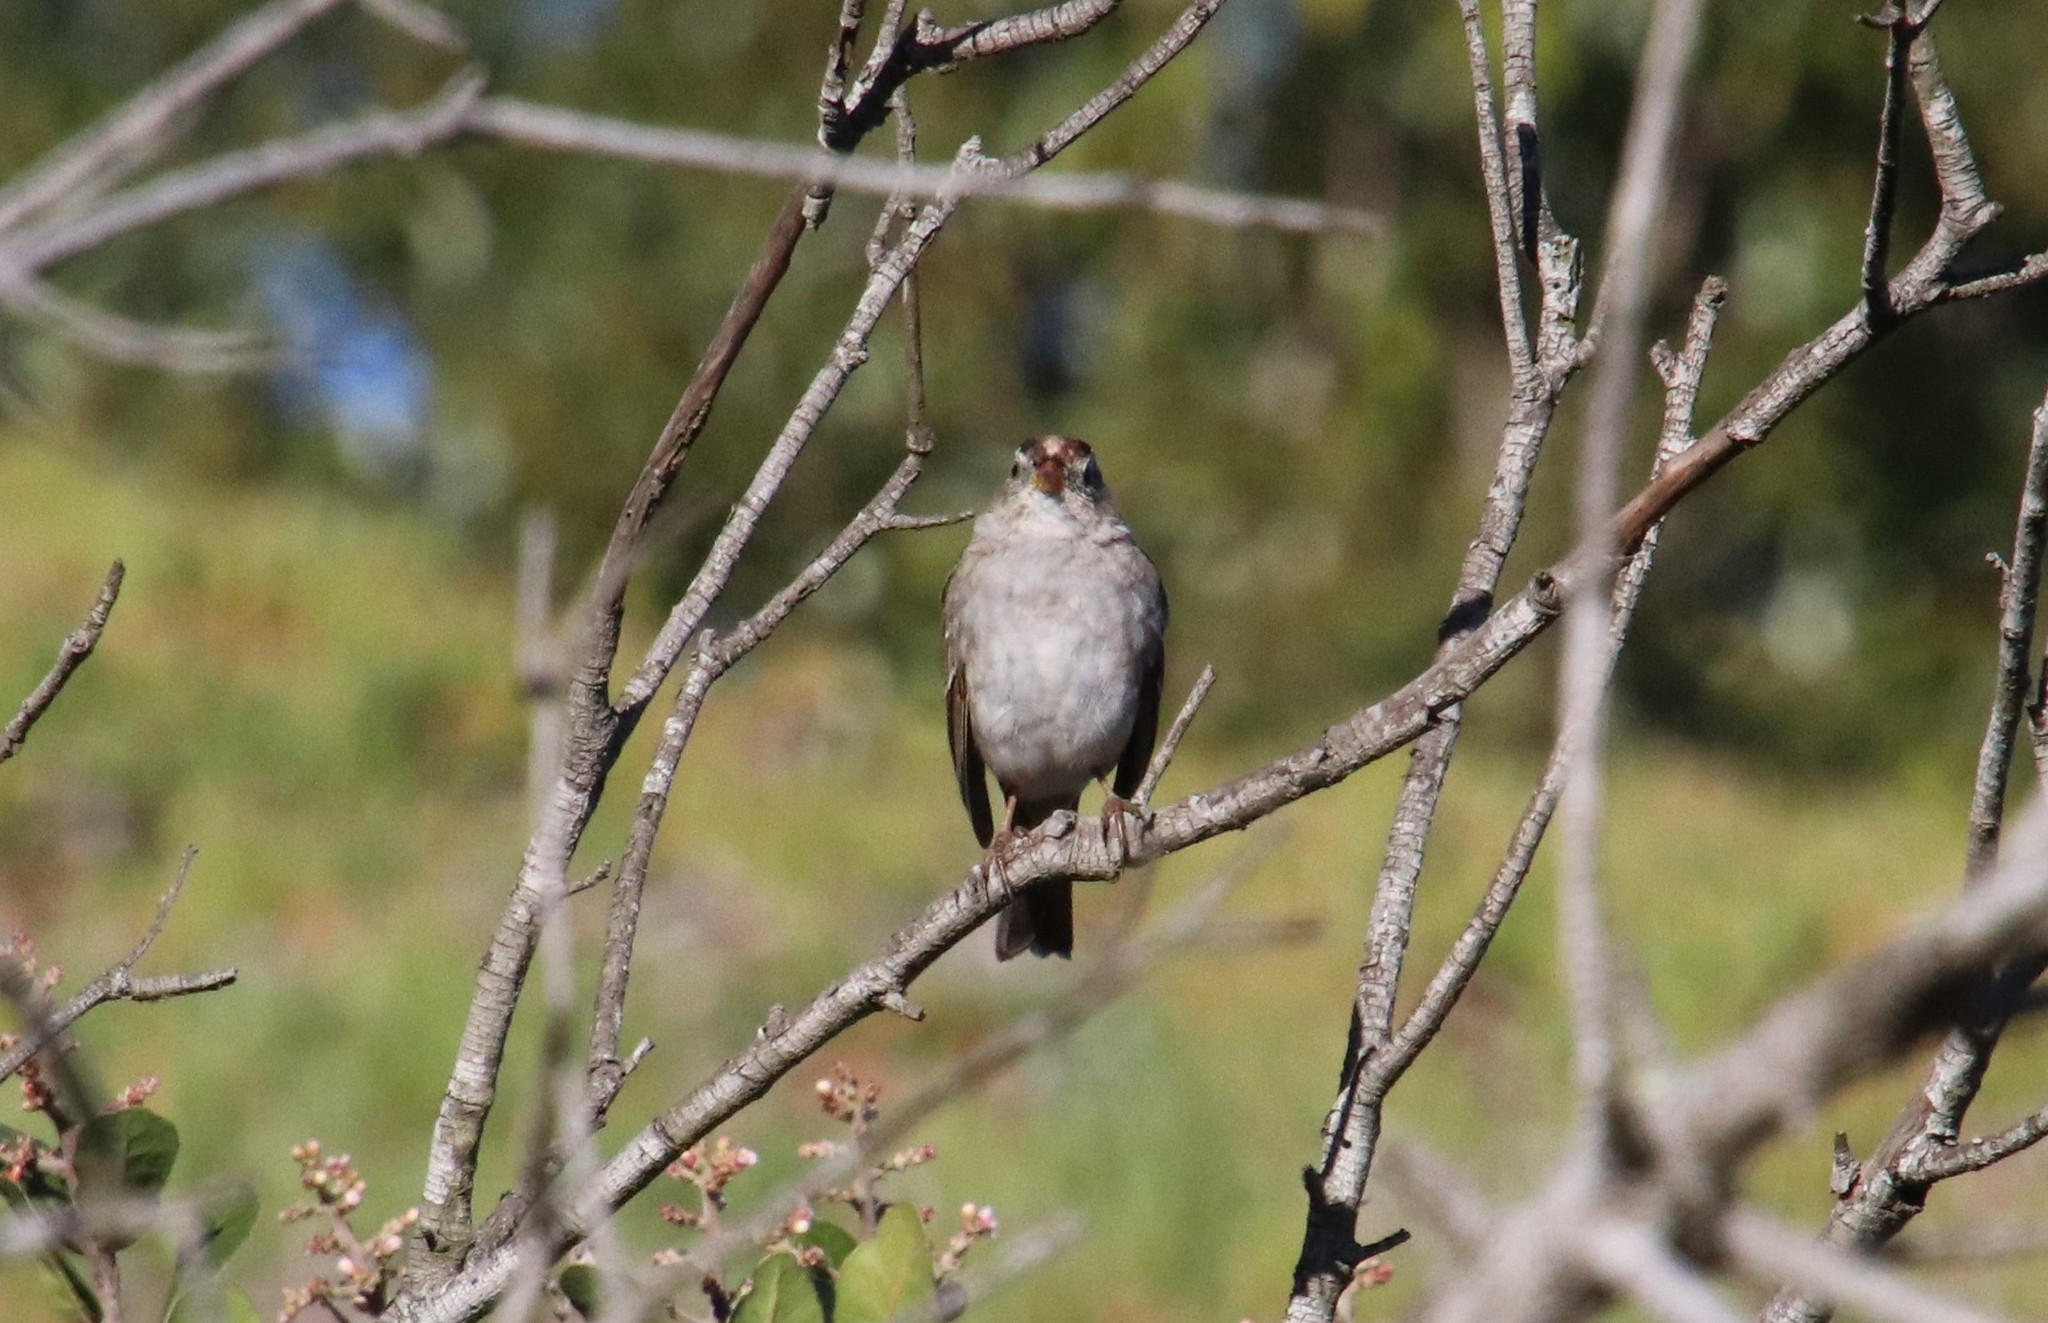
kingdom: Animalia
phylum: Chordata
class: Aves
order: Passeriformes
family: Passerellidae
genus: Zonotrichia
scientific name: Zonotrichia leucophrys
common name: White-crowned sparrow
